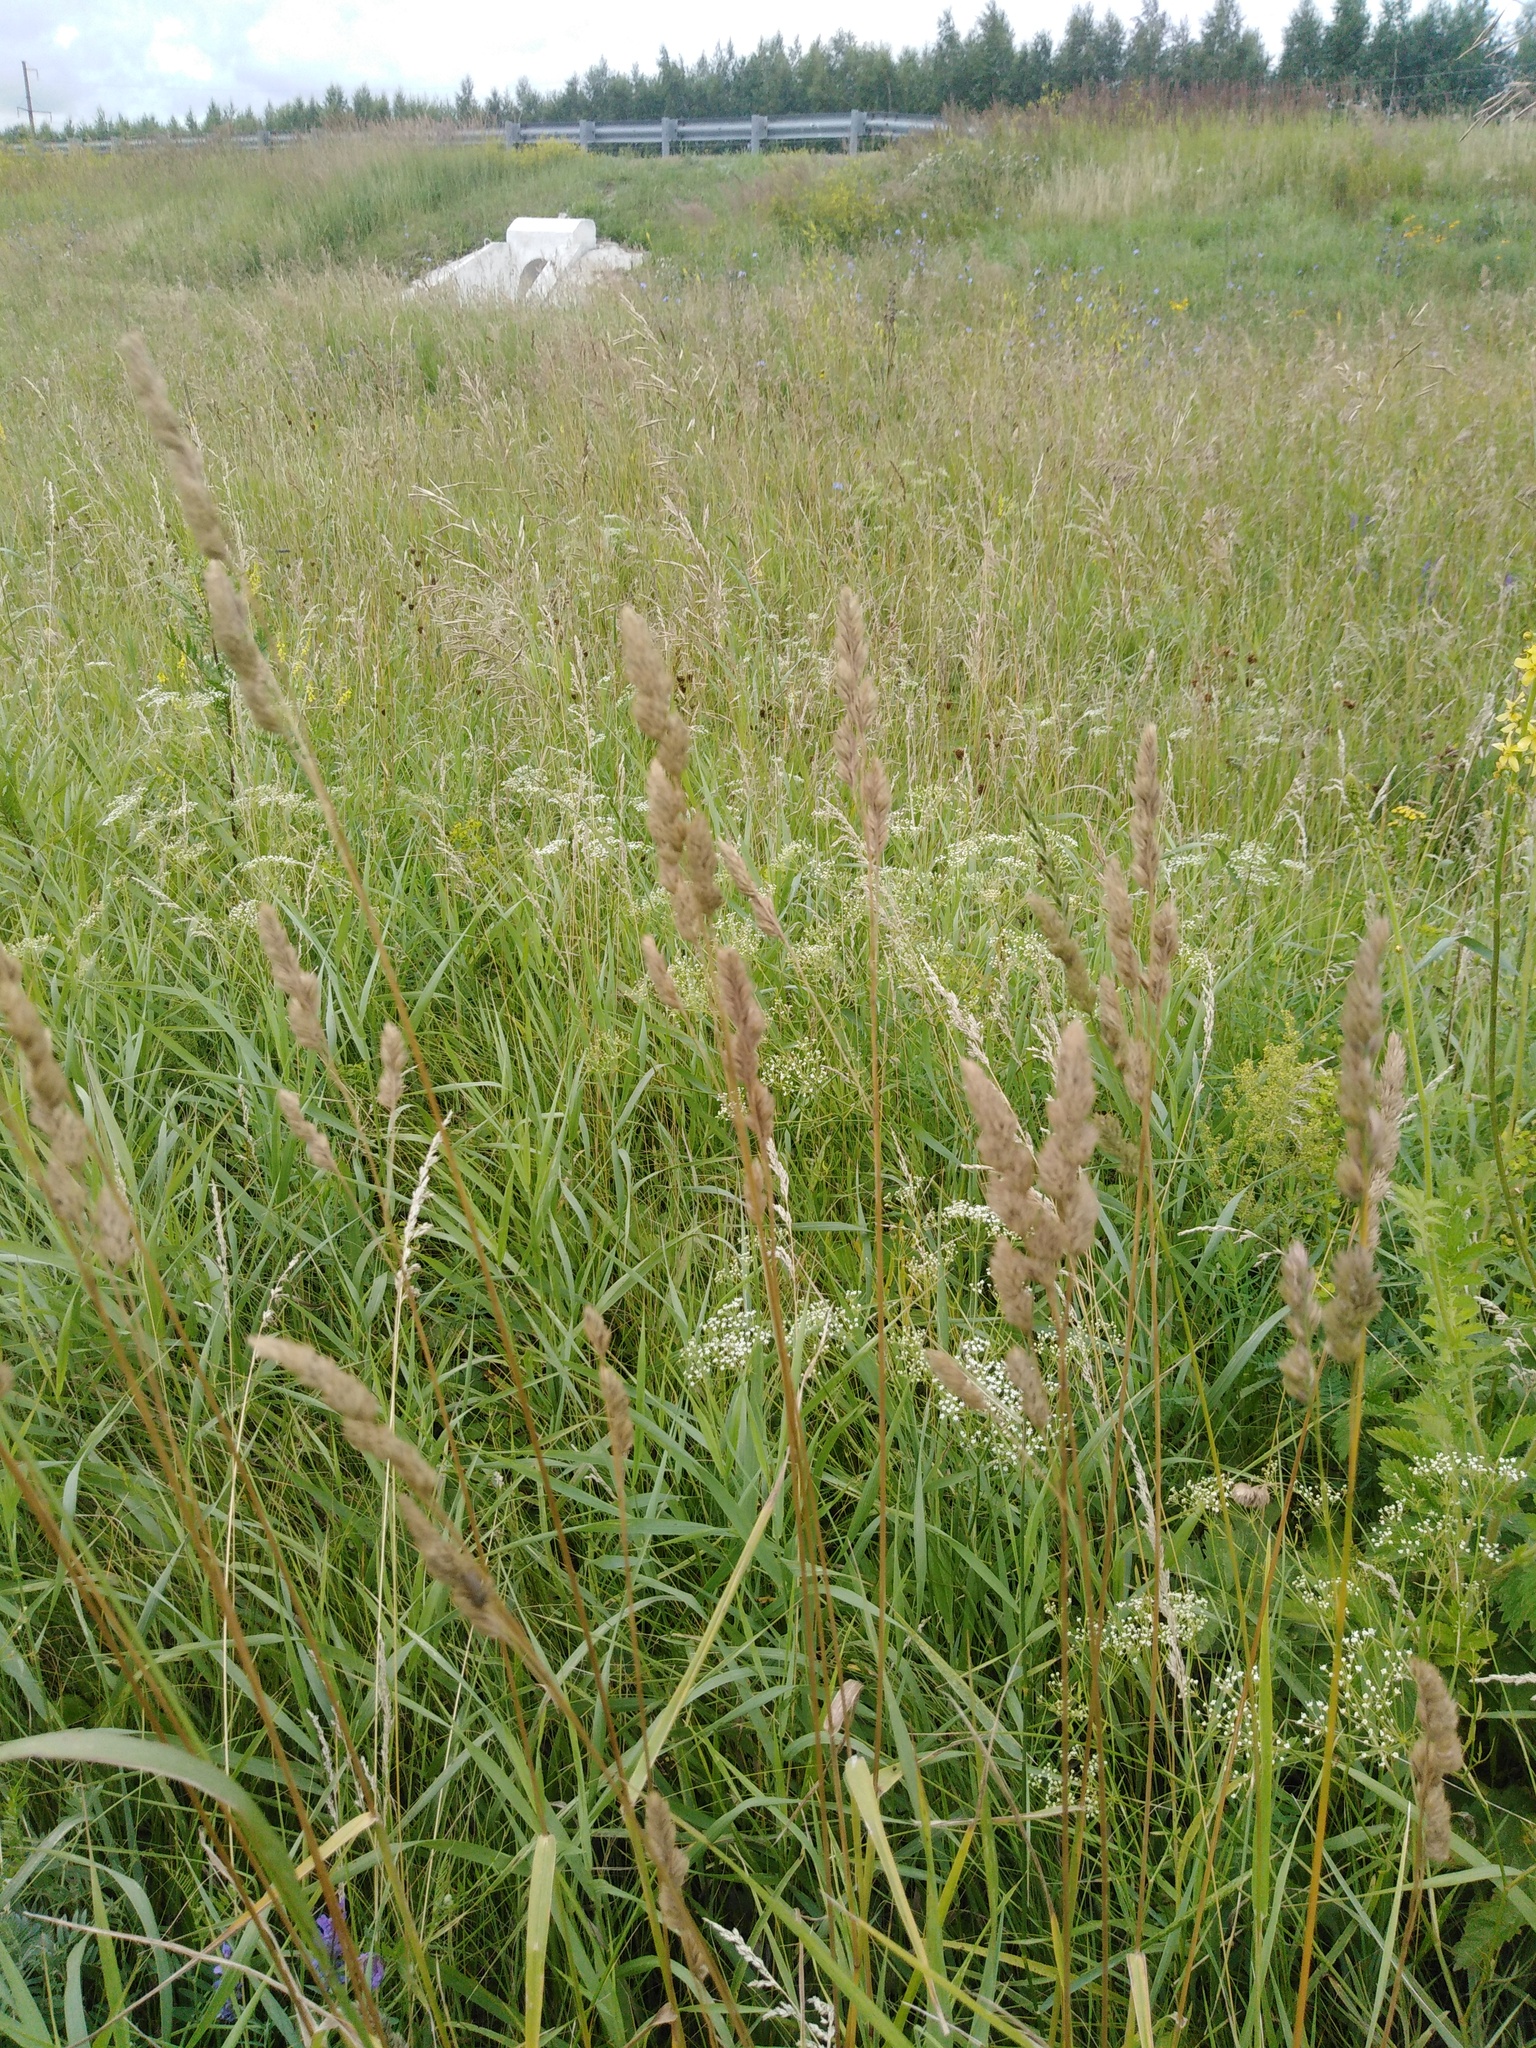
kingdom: Plantae
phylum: Tracheophyta
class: Liliopsida
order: Poales
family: Poaceae
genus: Dactylis
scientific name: Dactylis glomerata
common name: Orchardgrass
